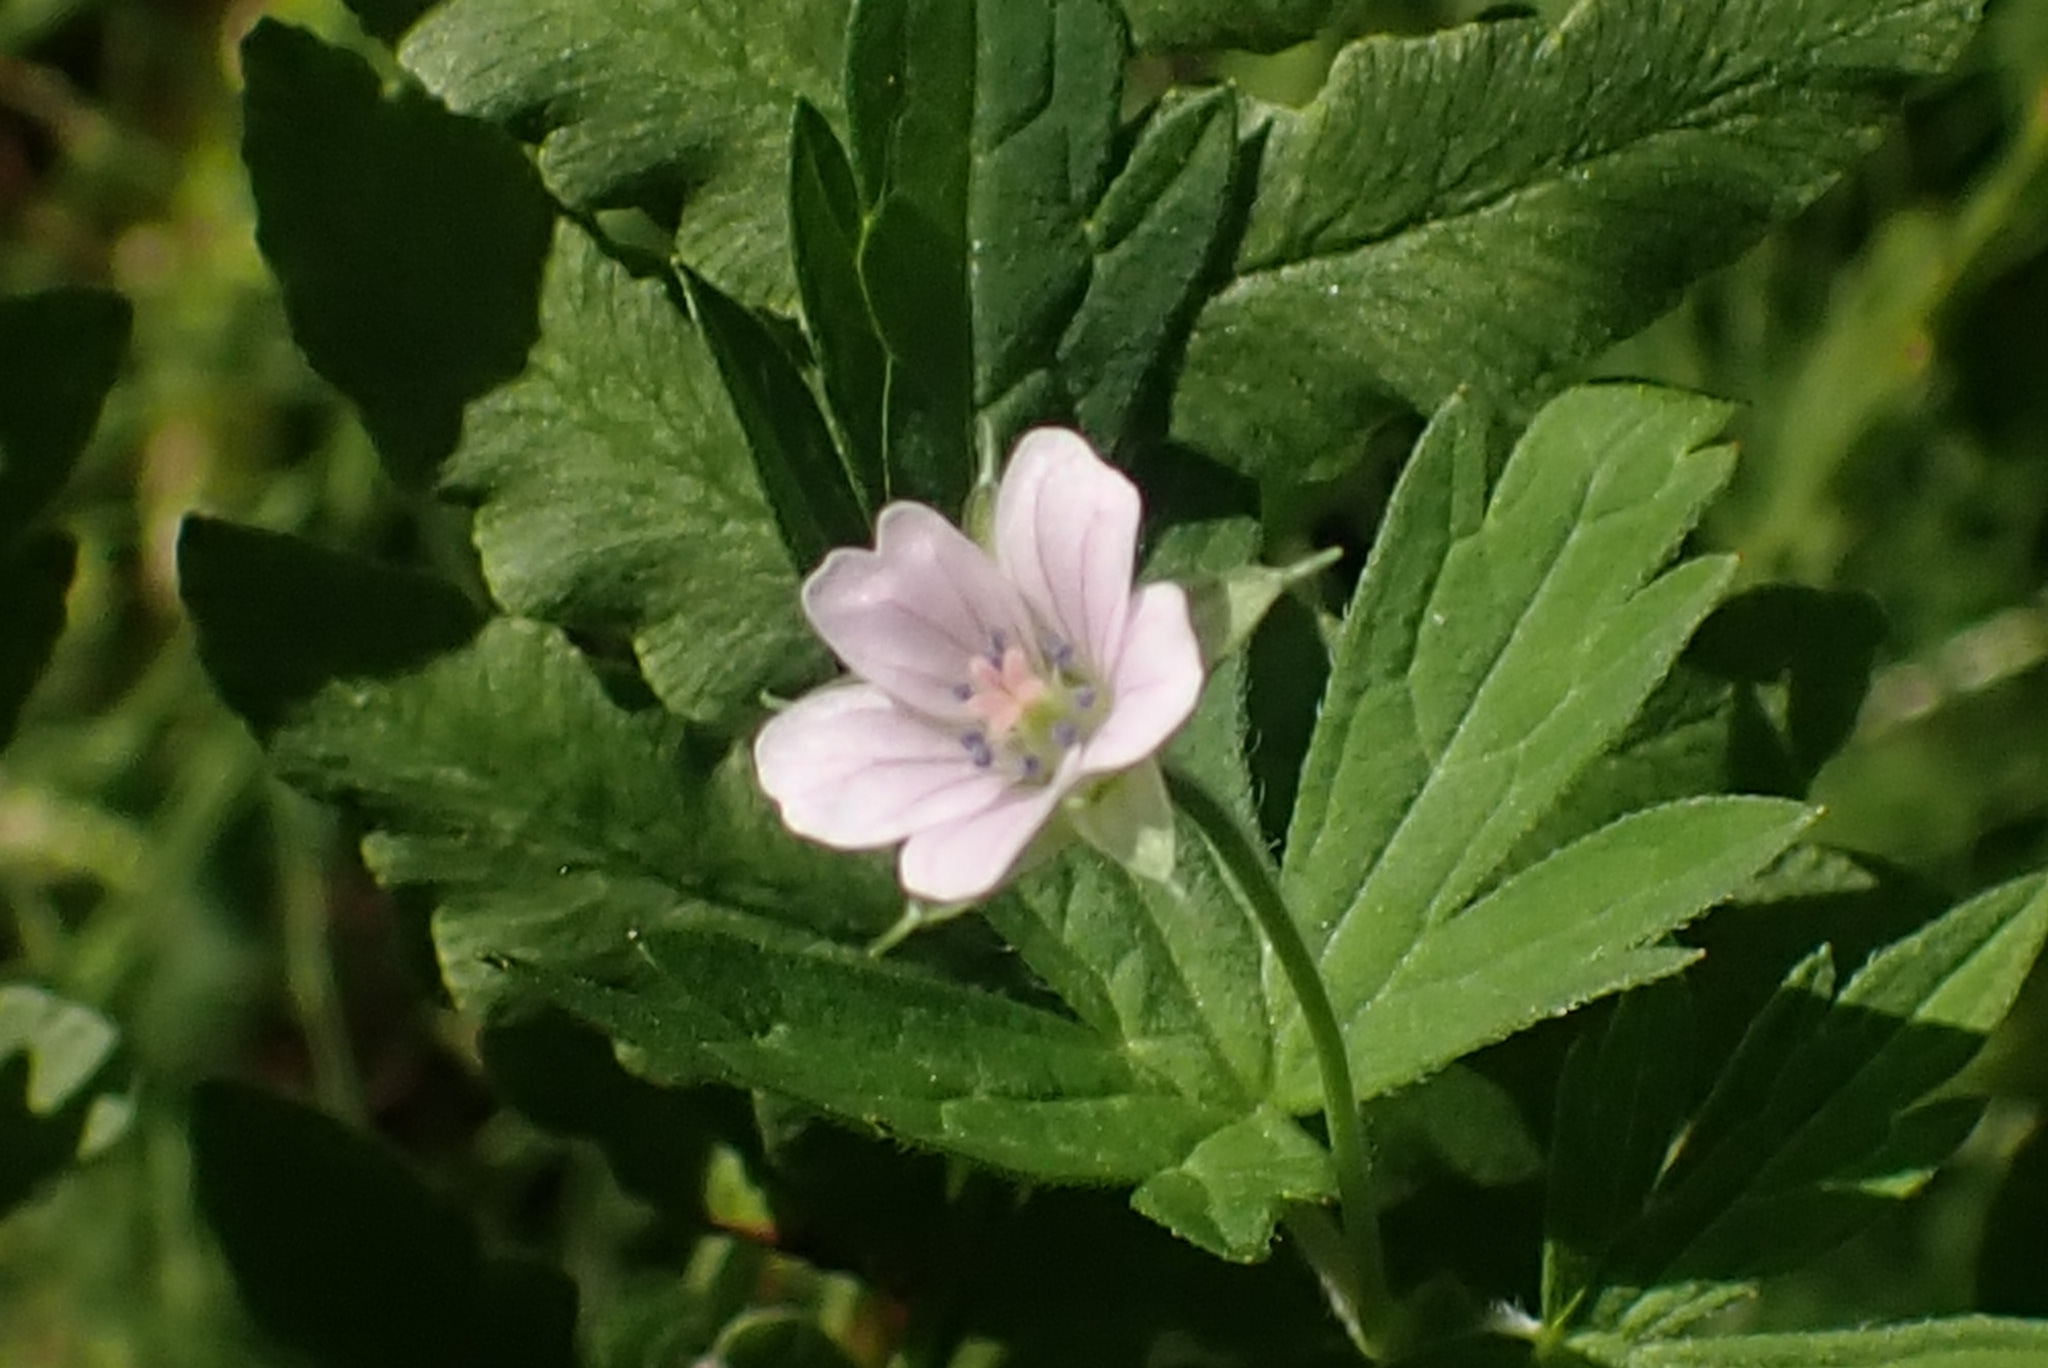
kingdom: Plantae
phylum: Tracheophyta
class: Magnoliopsida
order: Geraniales
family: Geraniaceae
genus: Geranium
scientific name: Geranium sibiricum
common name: Siberian crane's-bill
